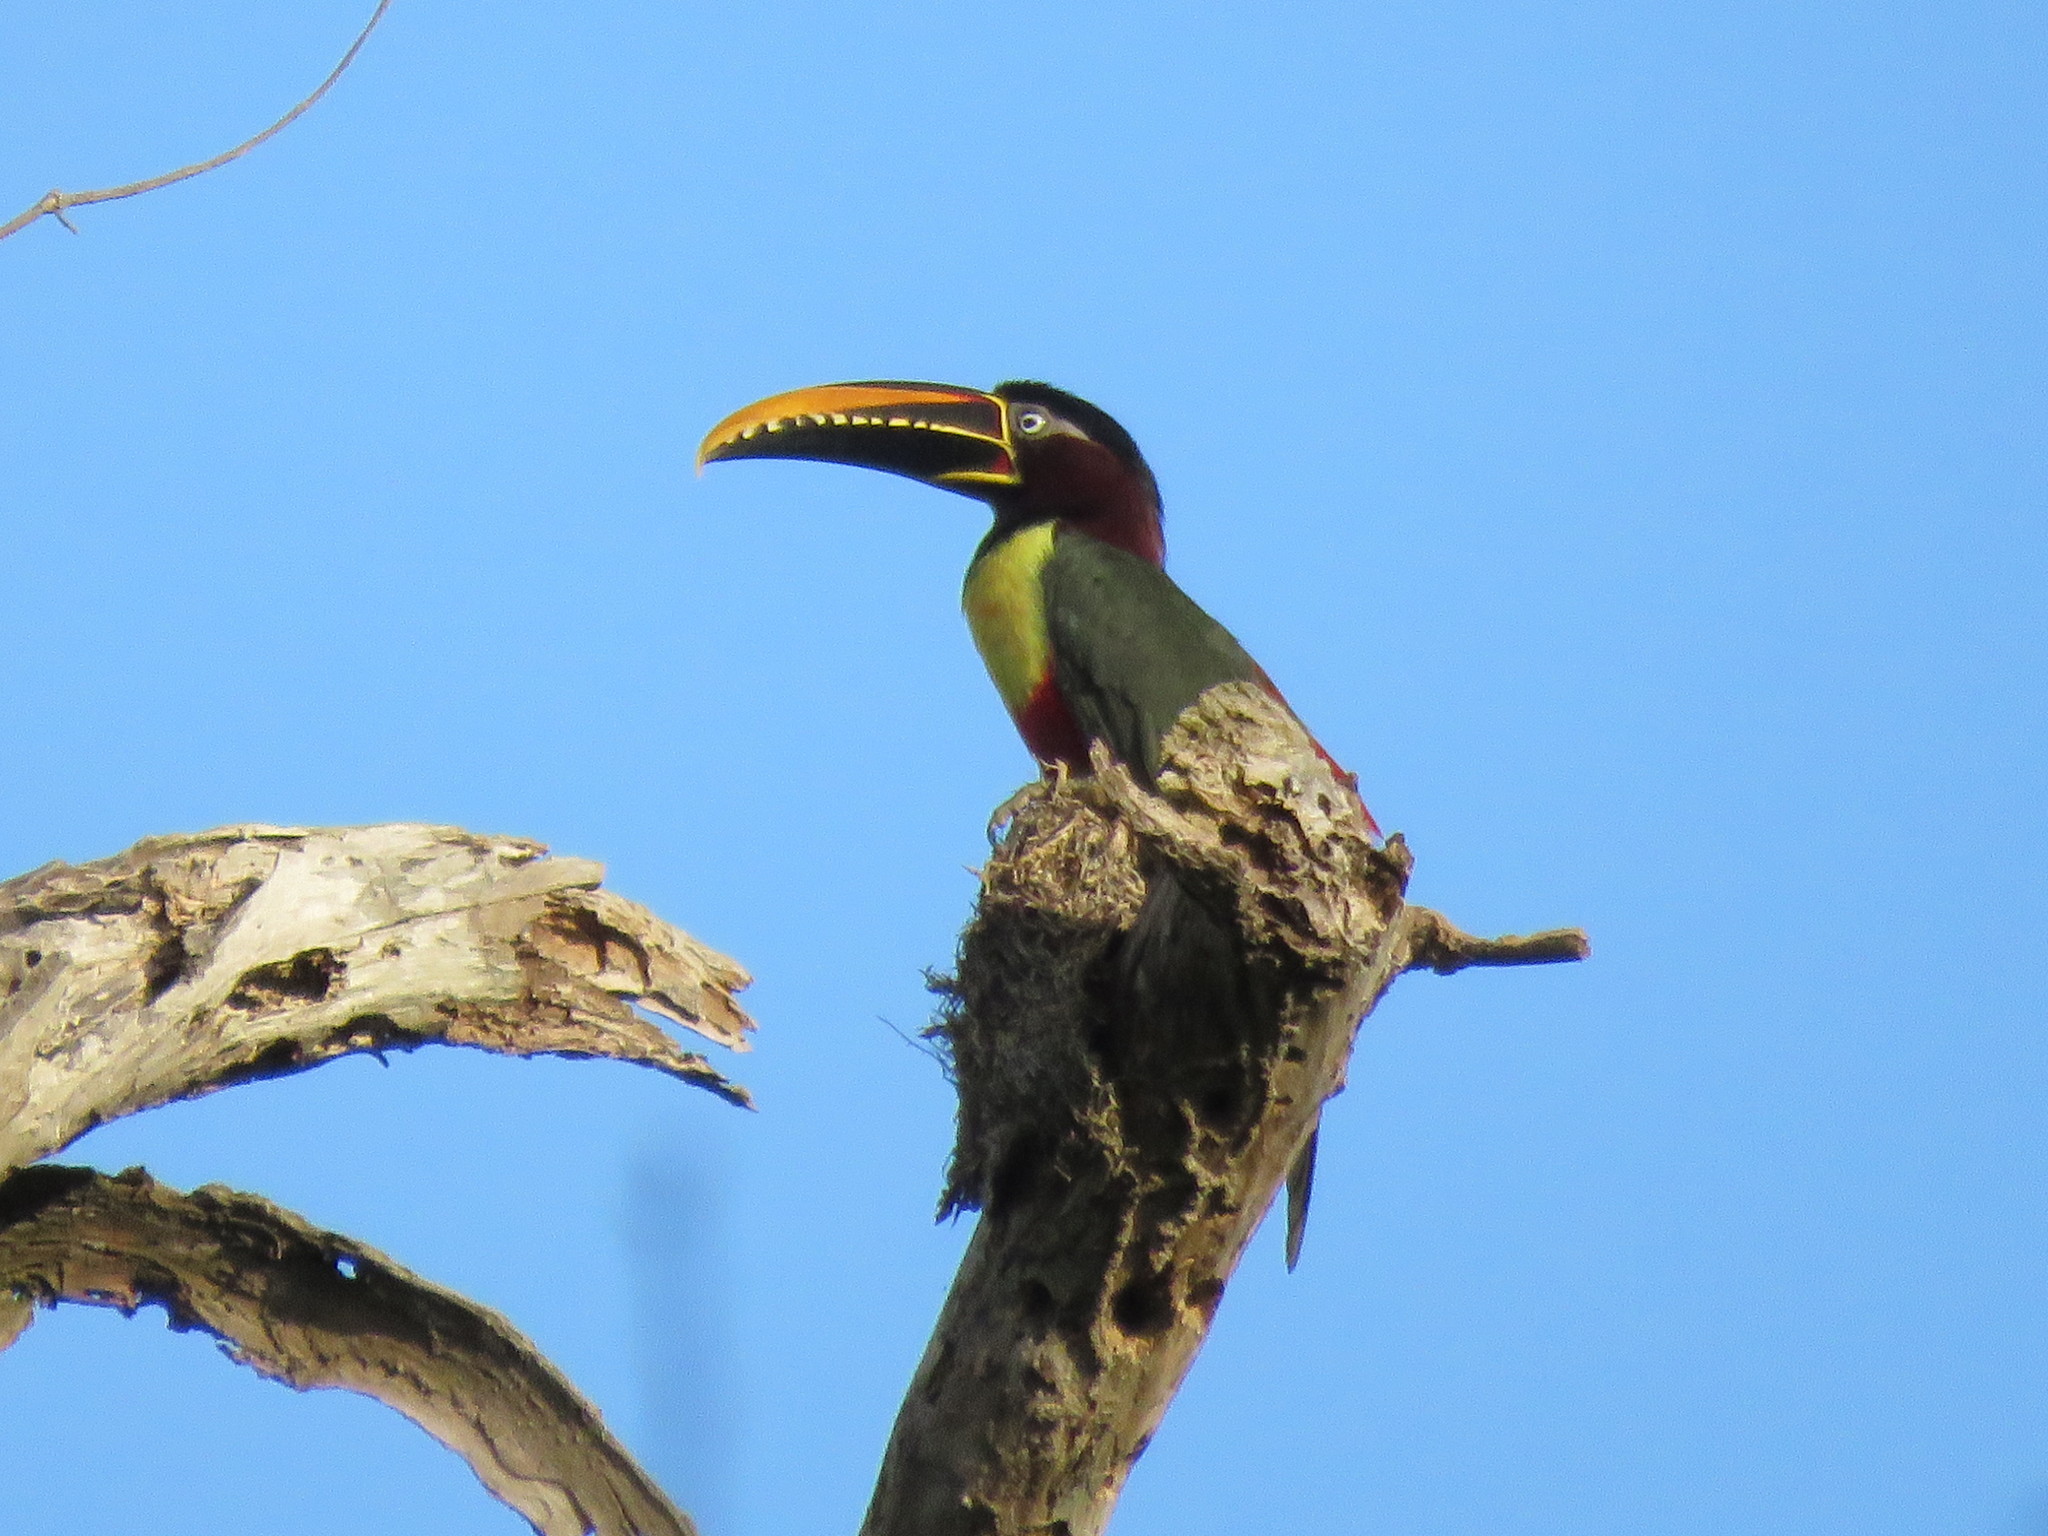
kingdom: Animalia
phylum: Chordata
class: Aves
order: Piciformes
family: Ramphastidae
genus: Pteroglossus
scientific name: Pteroglossus castanotis
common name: Chestnut-eared aracari
